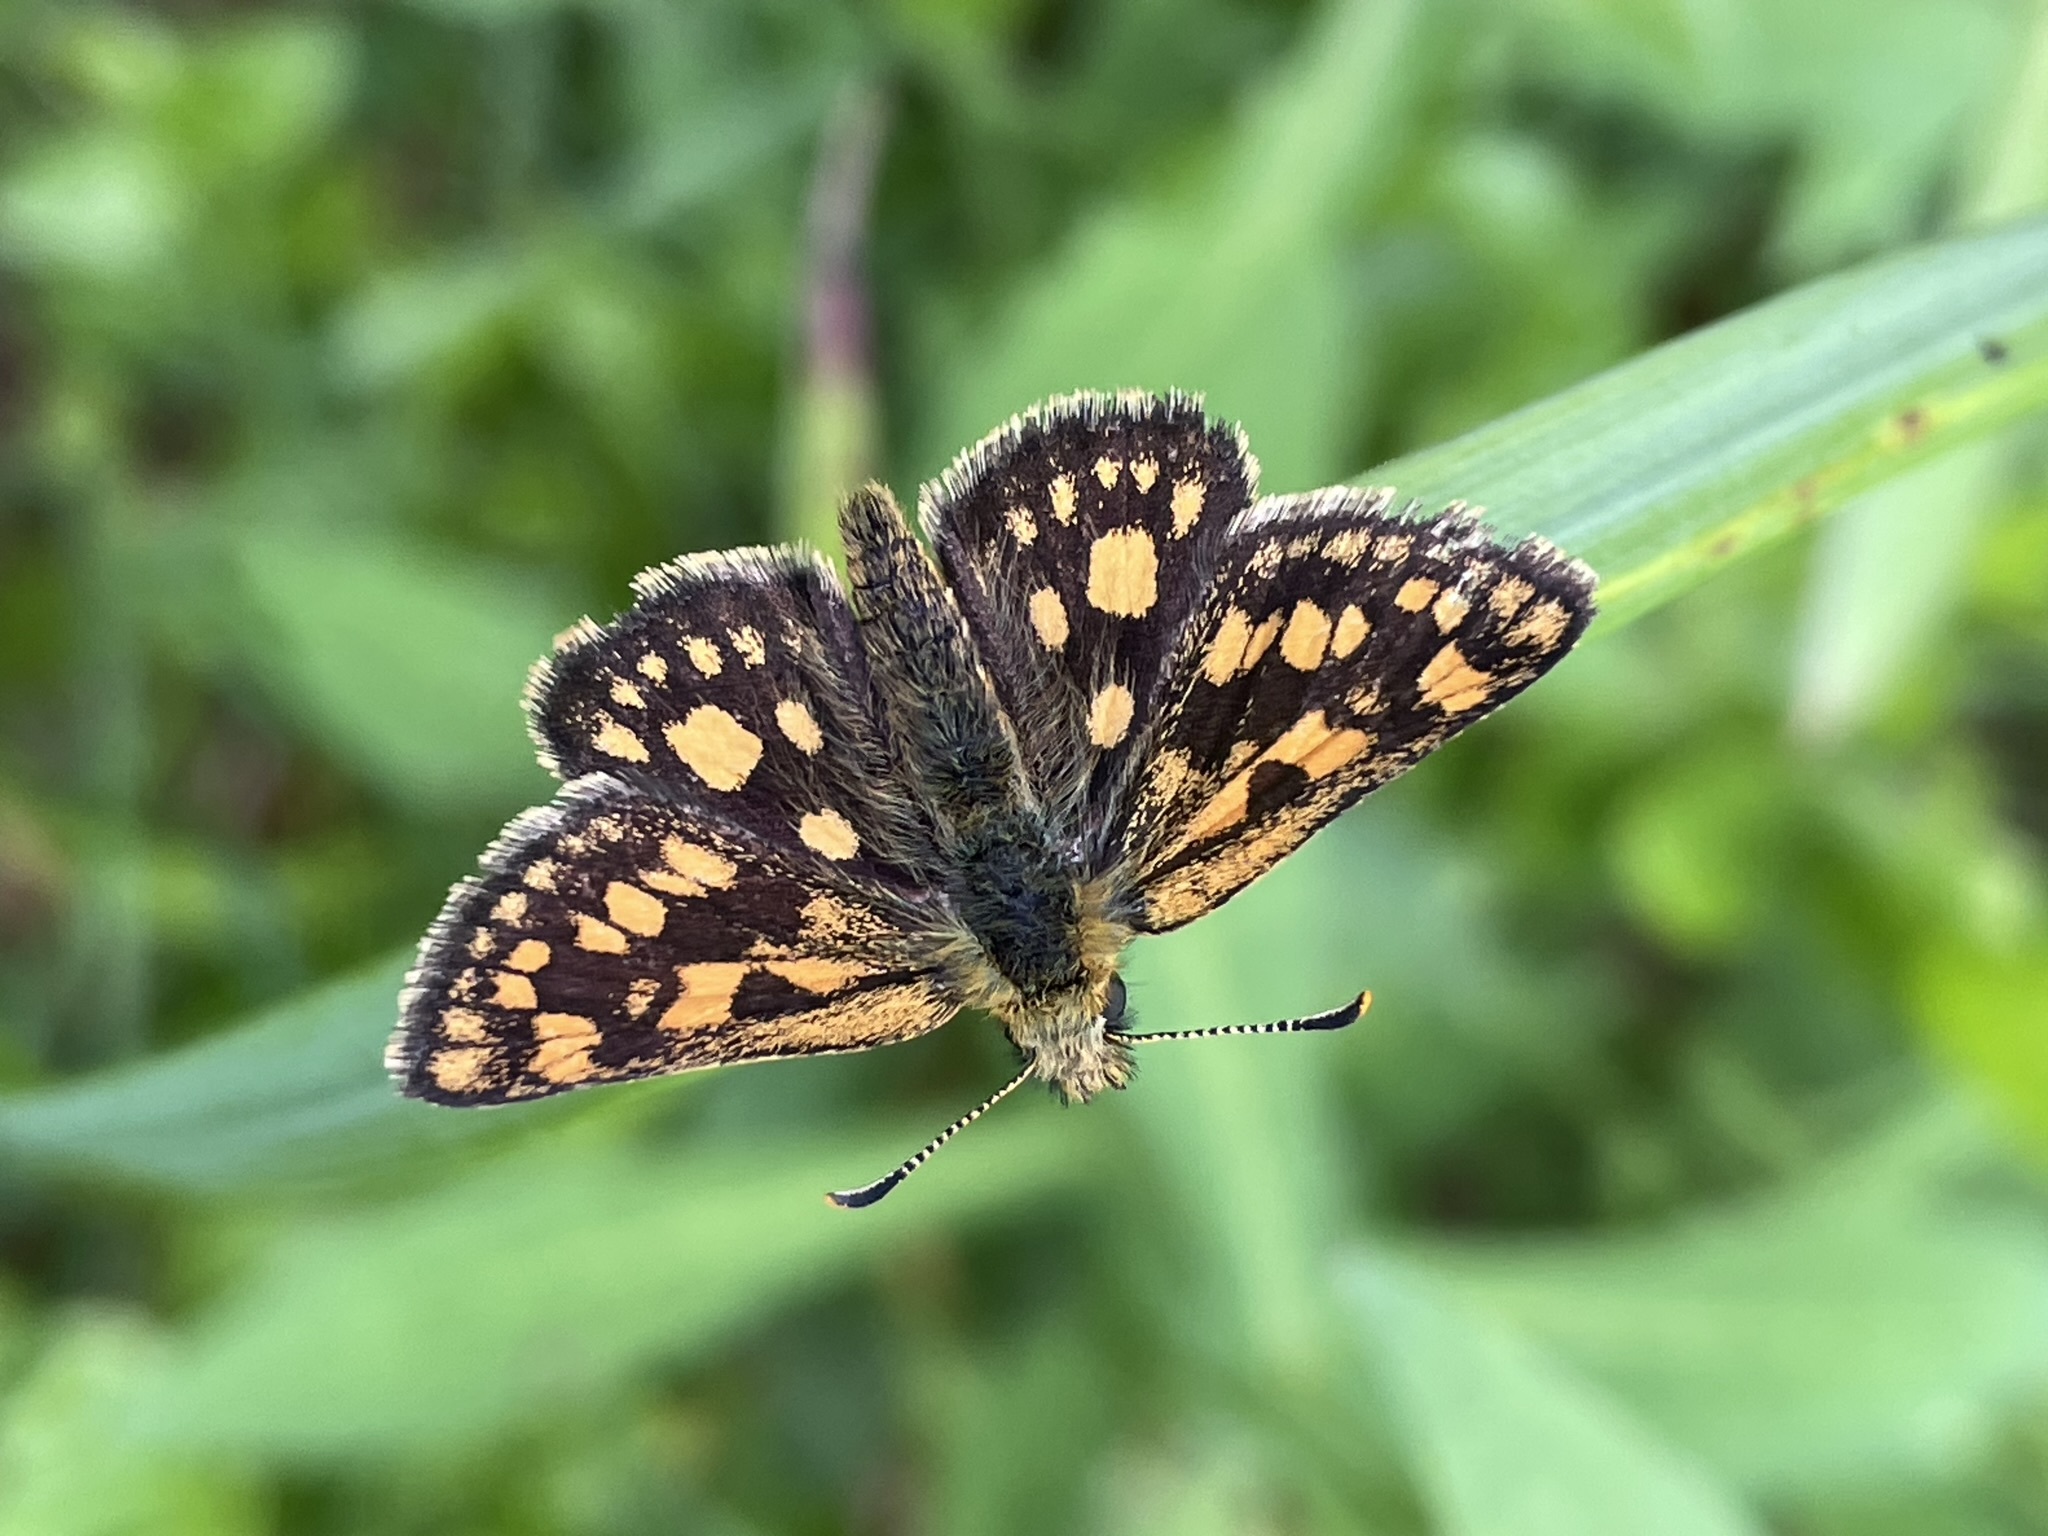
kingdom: Animalia
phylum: Arthropoda
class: Insecta
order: Lepidoptera
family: Hesperiidae
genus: Carterocephalus
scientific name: Carterocephalus palaemon
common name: Chequered skipper
